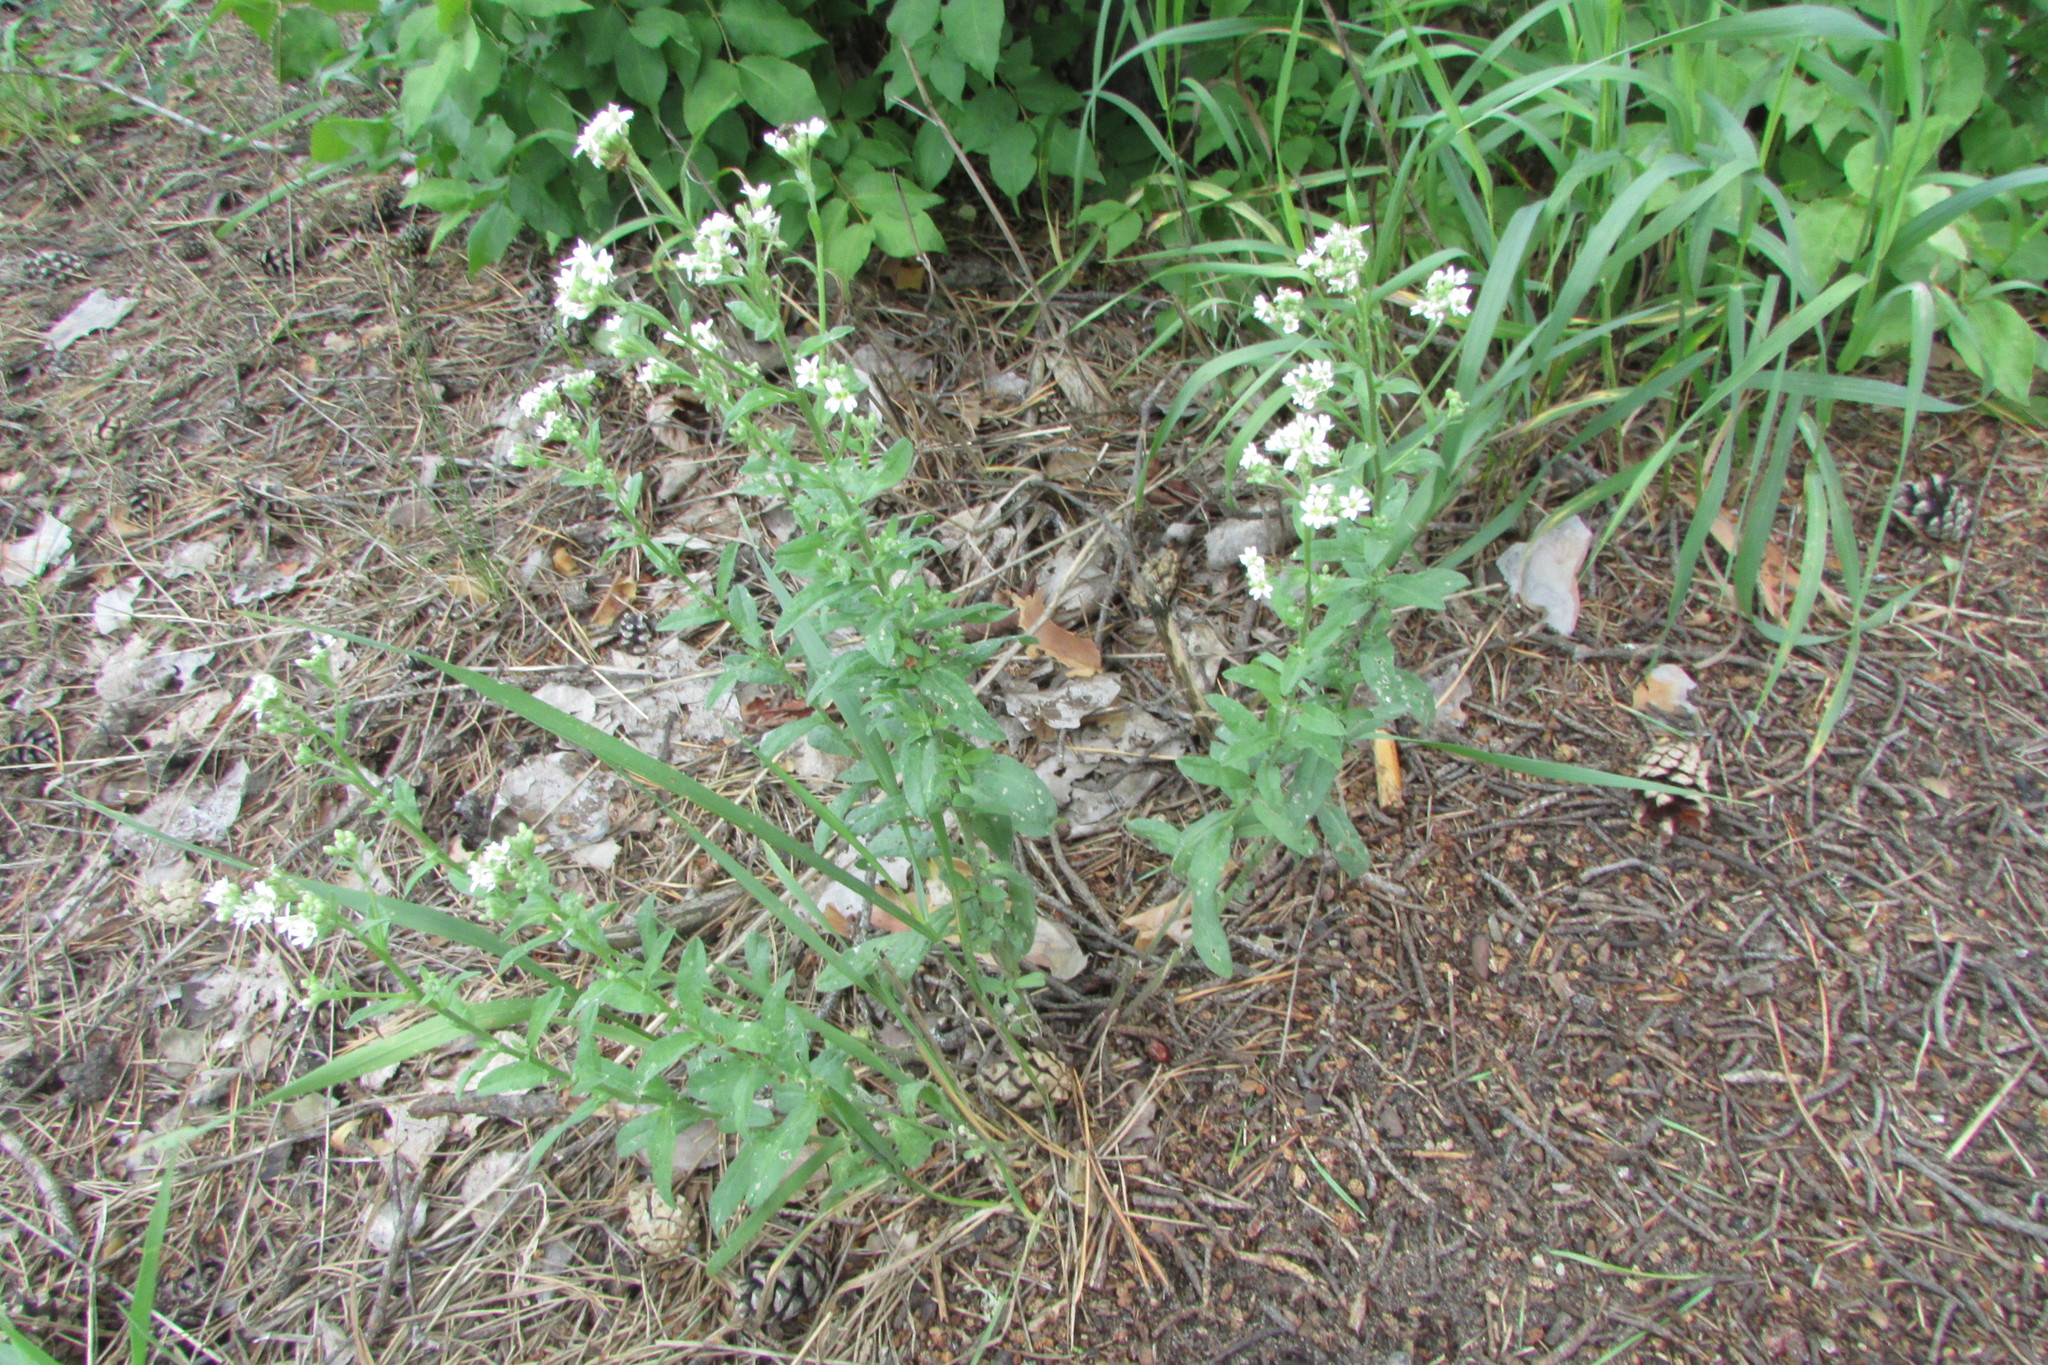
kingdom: Plantae
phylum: Tracheophyta
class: Magnoliopsida
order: Brassicales
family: Brassicaceae
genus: Berteroa
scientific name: Berteroa incana
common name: Hoary alison
